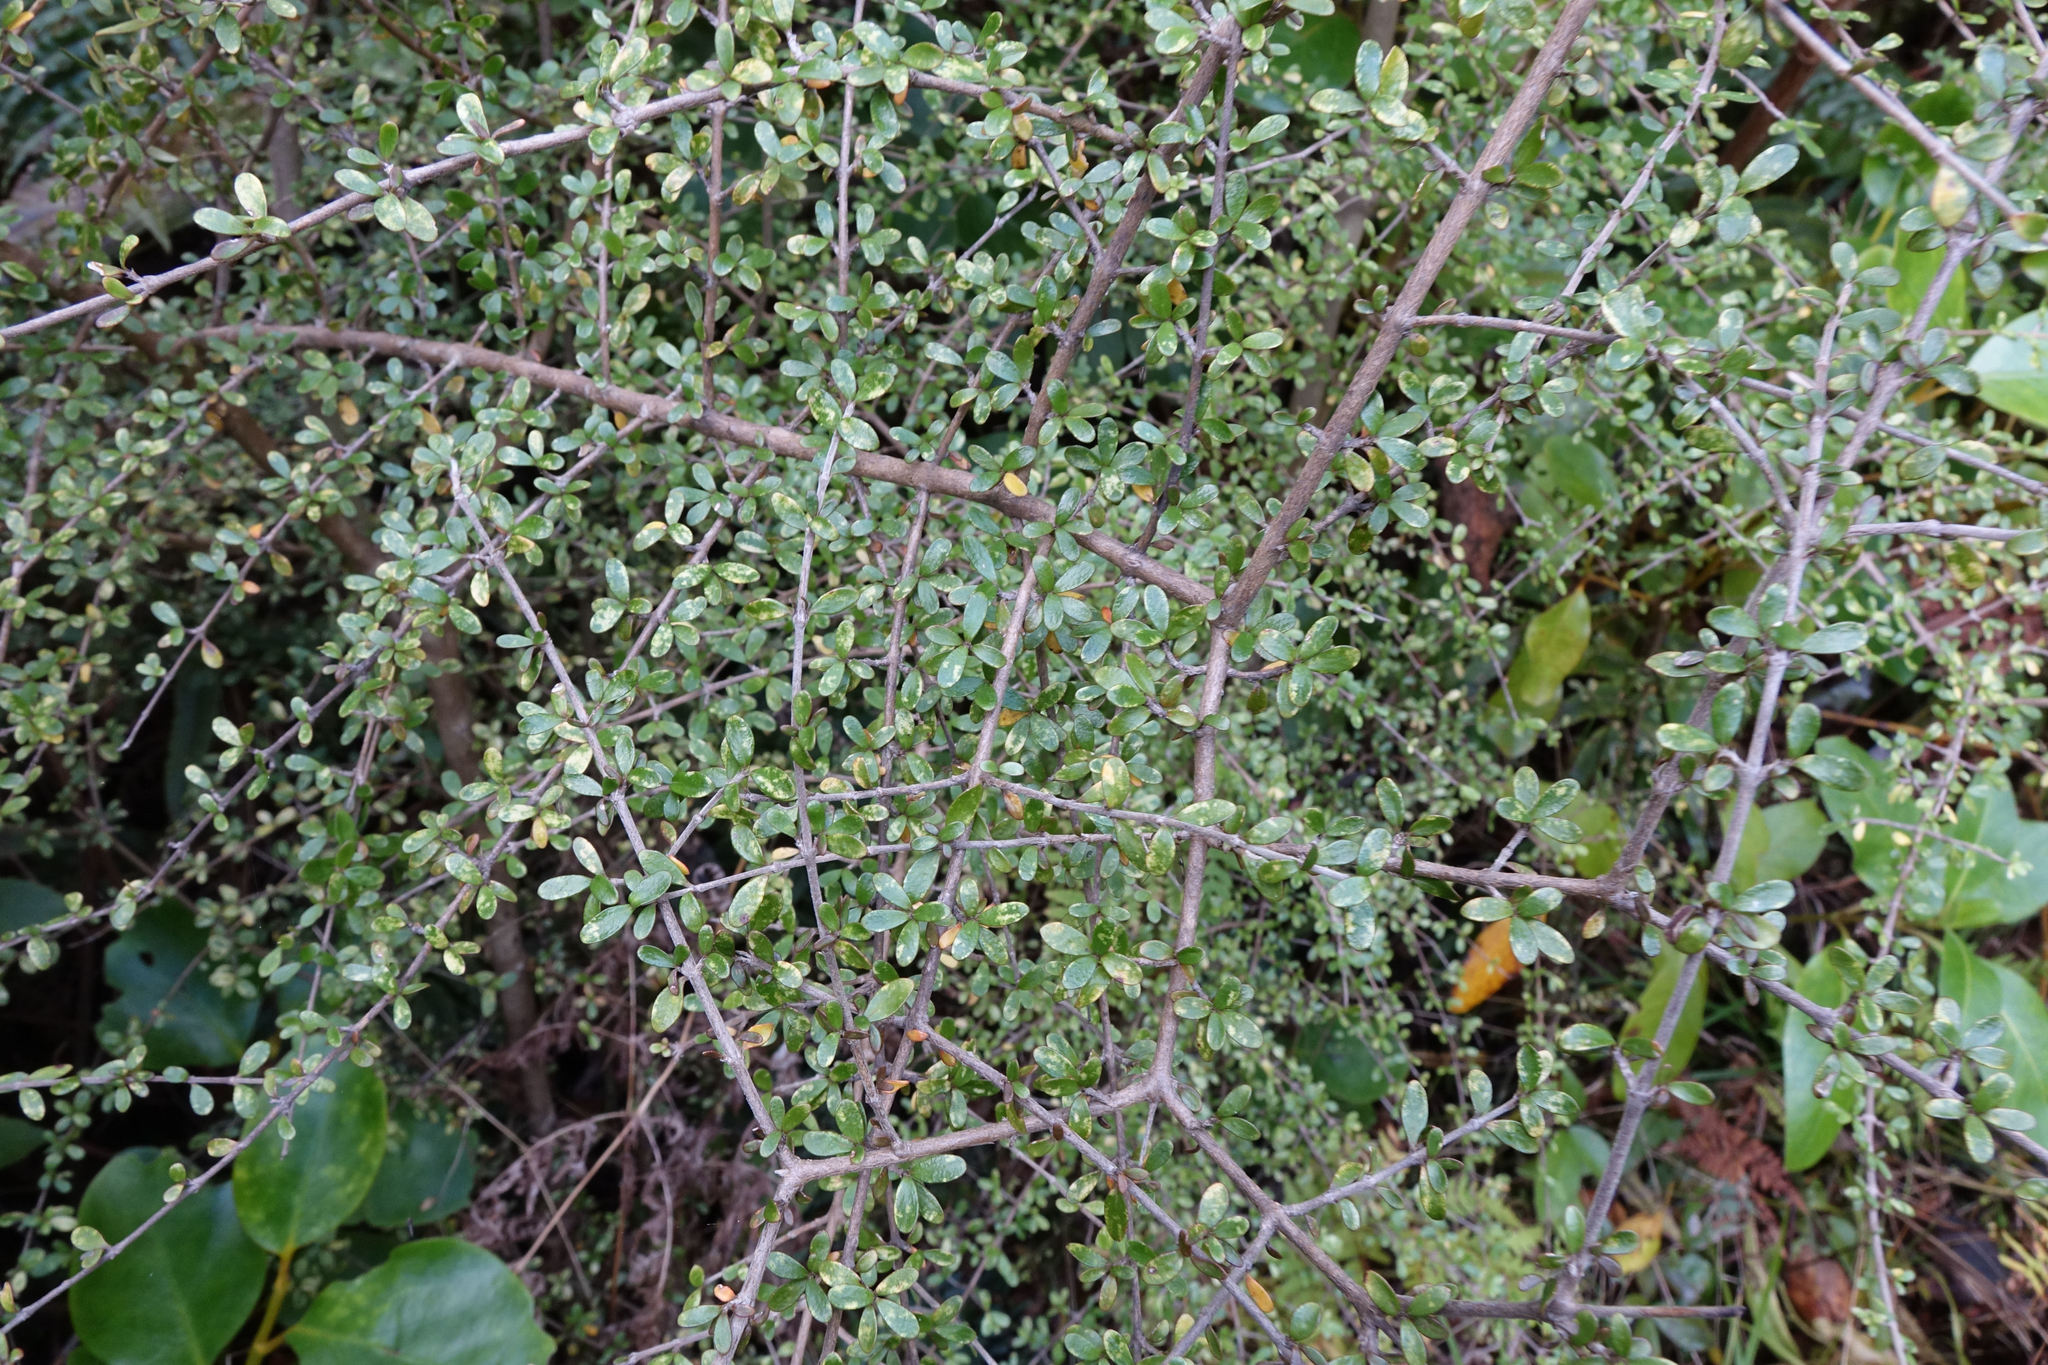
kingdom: Plantae
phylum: Tracheophyta
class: Magnoliopsida
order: Gentianales
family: Rubiaceae
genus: Coprosma
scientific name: Coprosma dumosa
